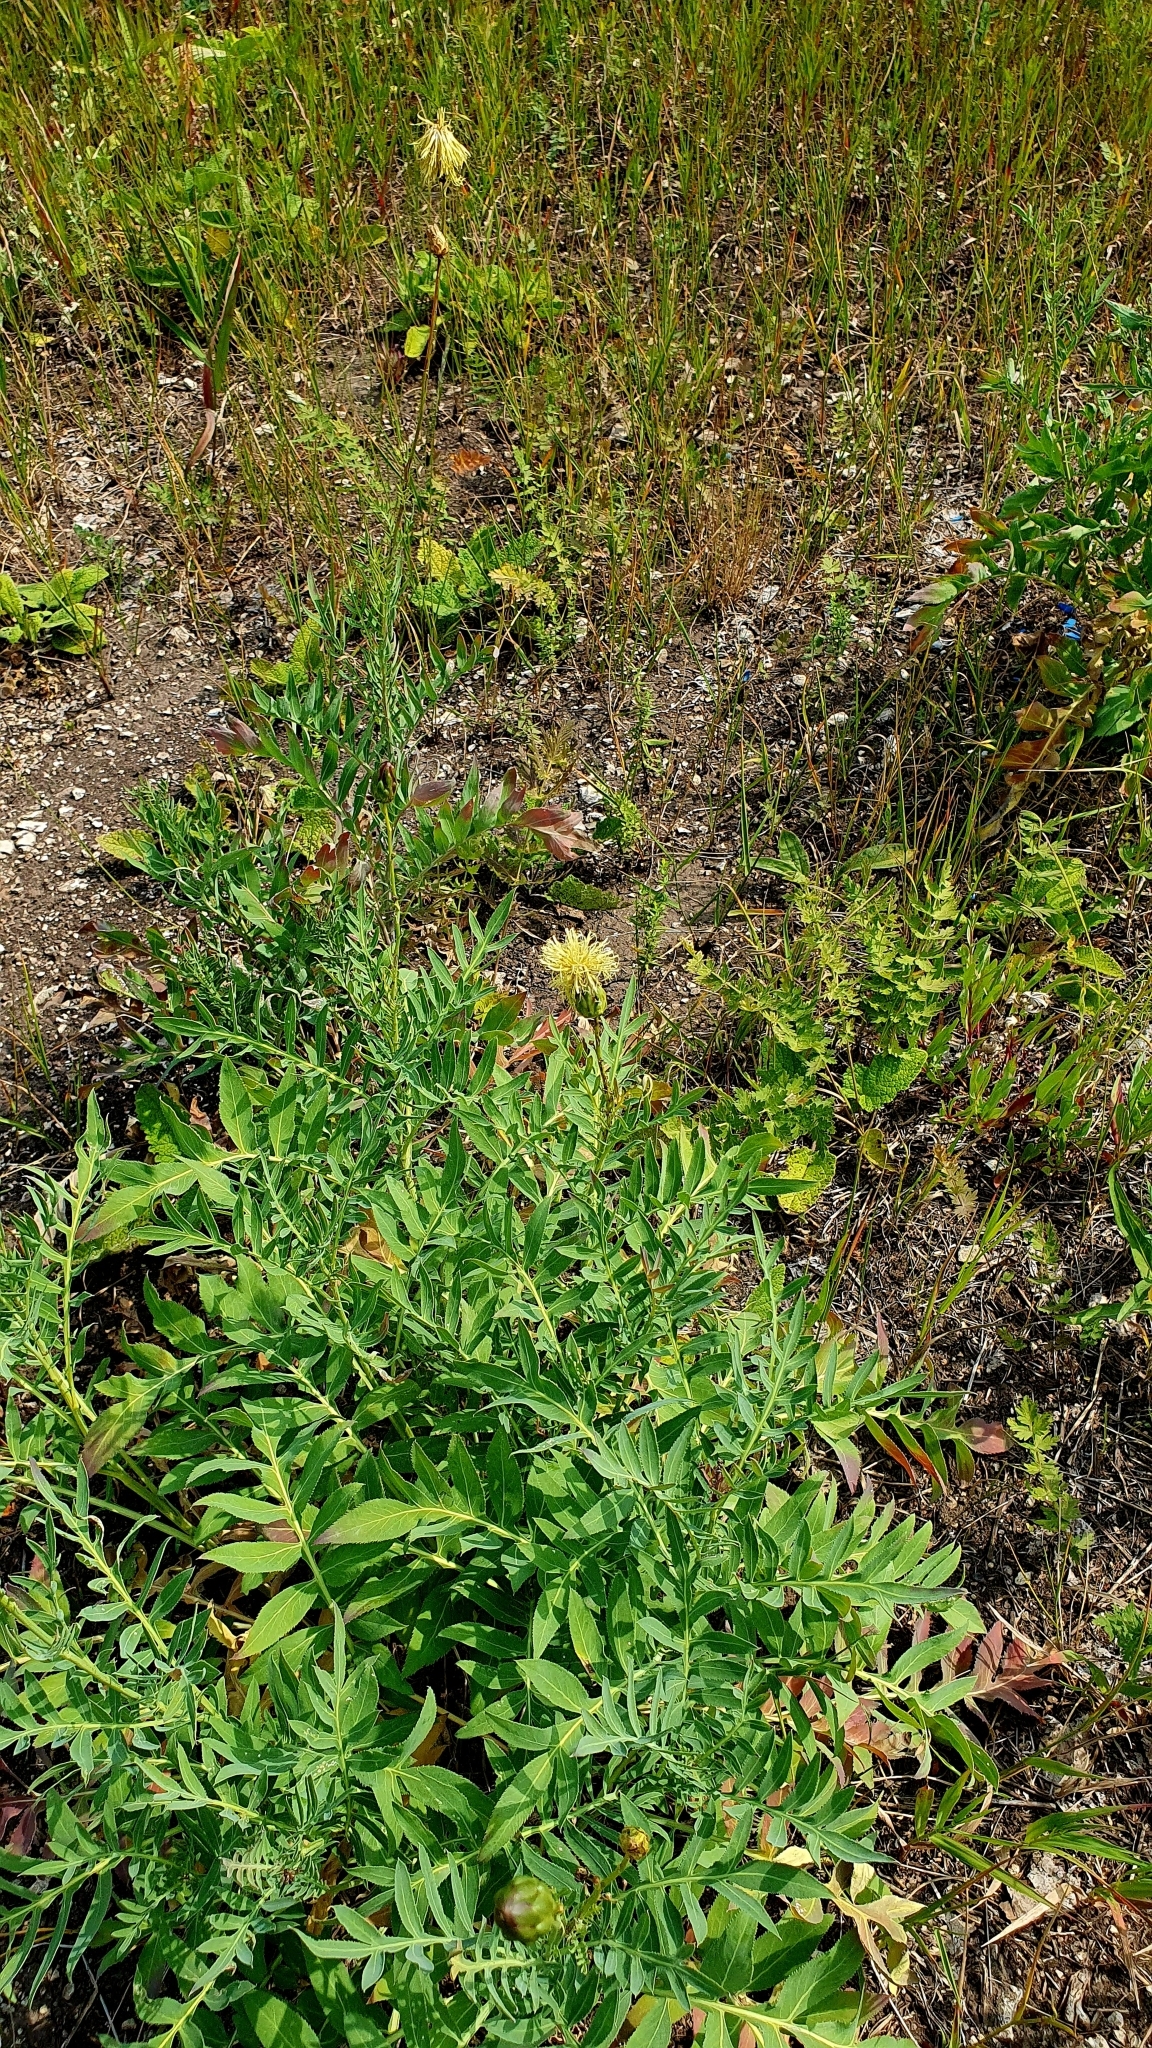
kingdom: Plantae
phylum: Tracheophyta
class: Magnoliopsida
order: Asterales
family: Asteraceae
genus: Rhaponticoides
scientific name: Rhaponticoides ruthenica
